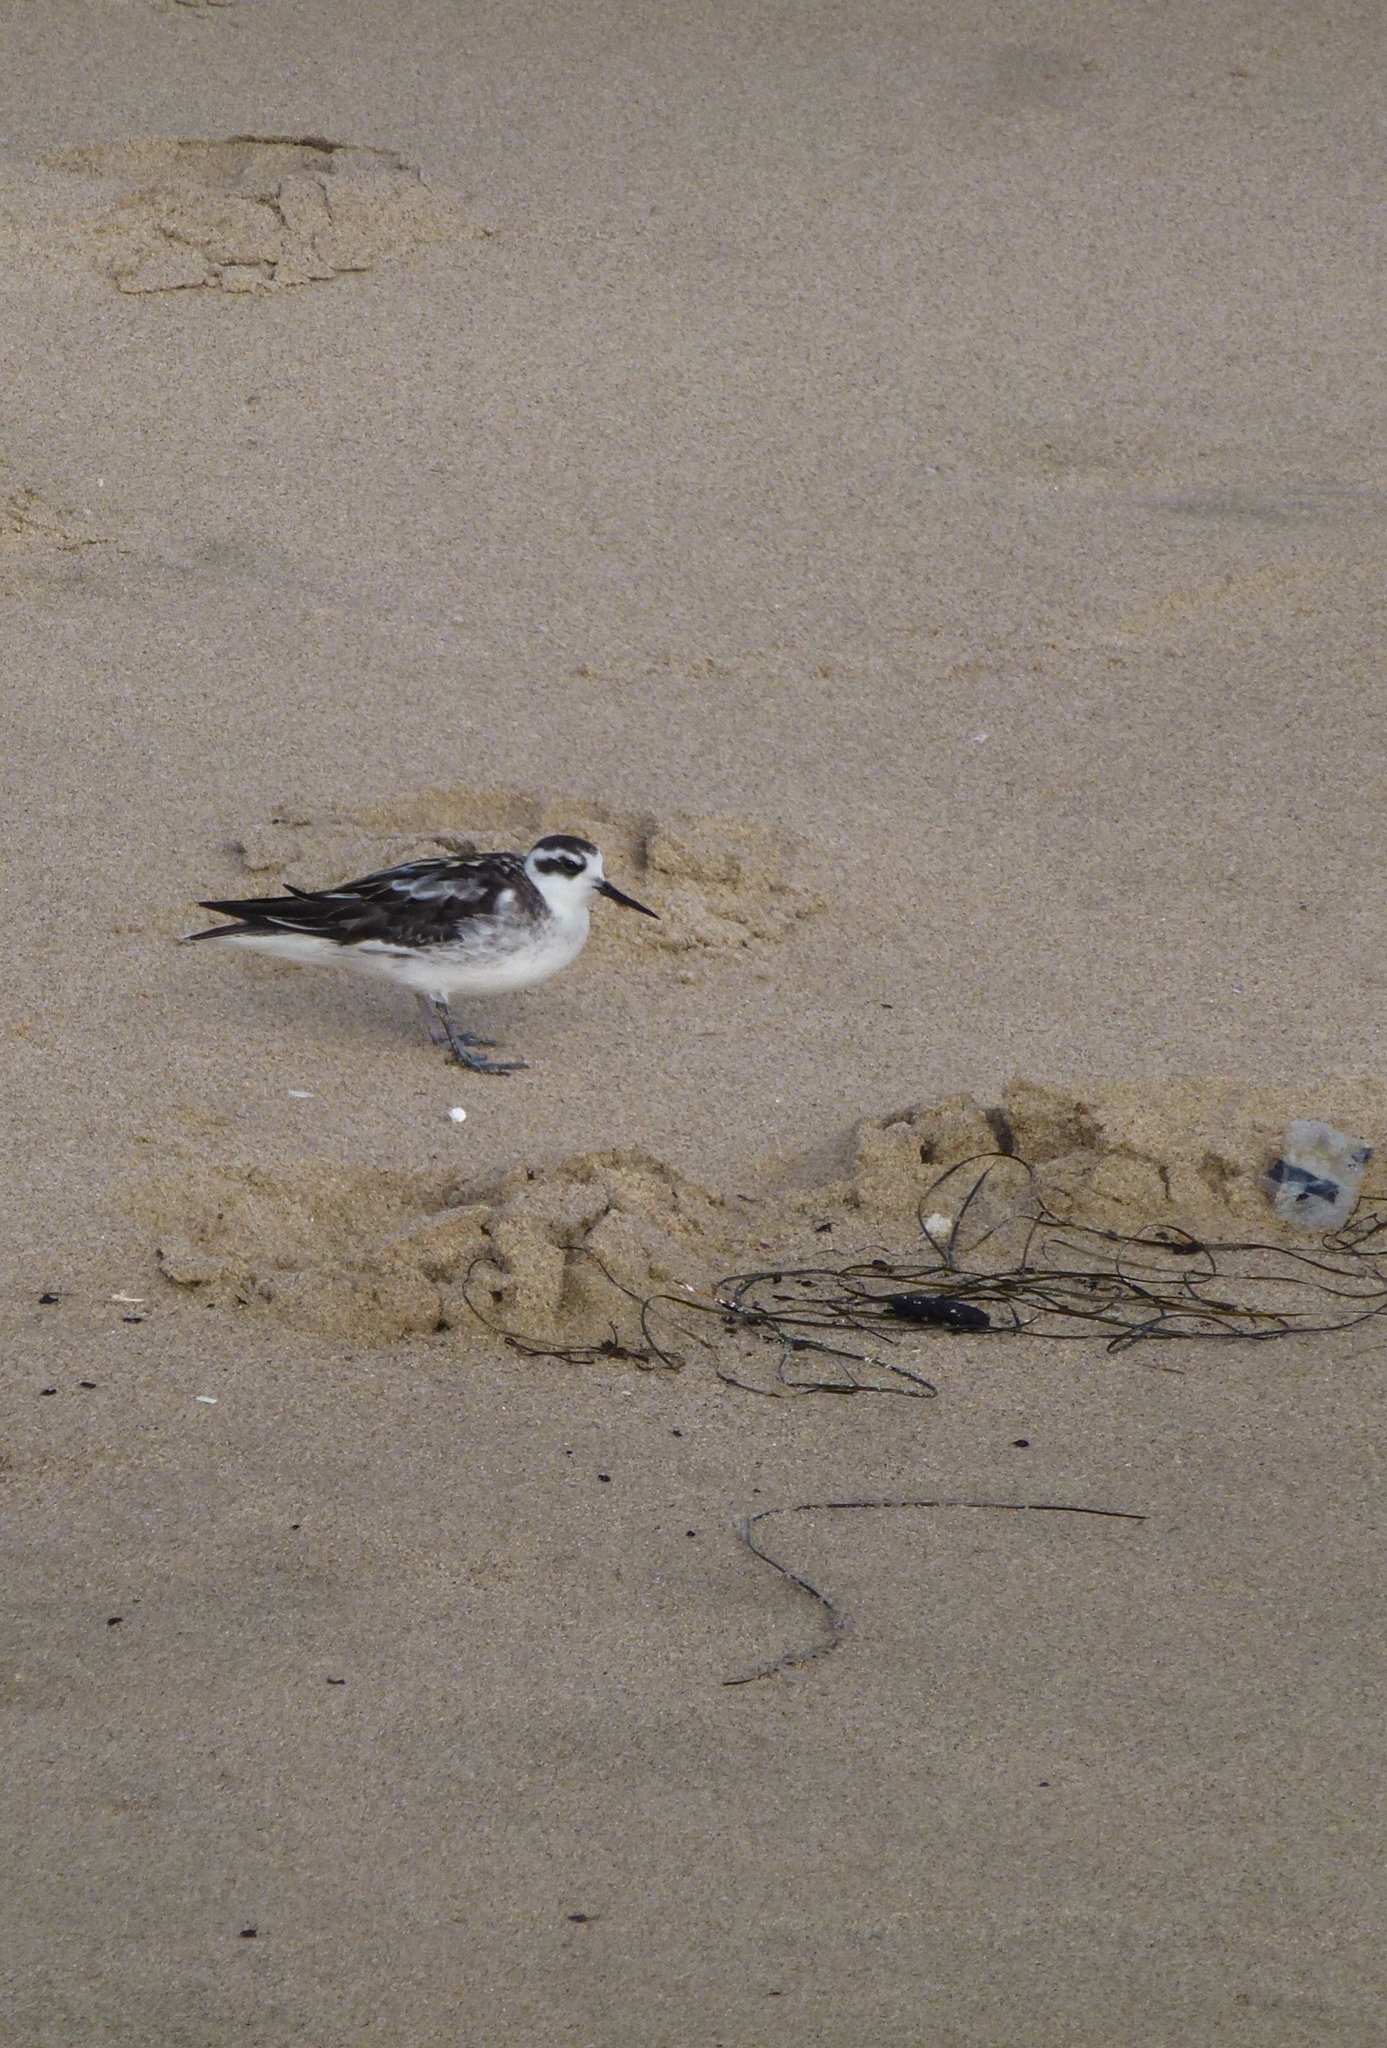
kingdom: Animalia
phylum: Chordata
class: Aves
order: Charadriiformes
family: Scolopacidae
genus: Phalaropus
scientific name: Phalaropus lobatus
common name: Red-necked phalarope
